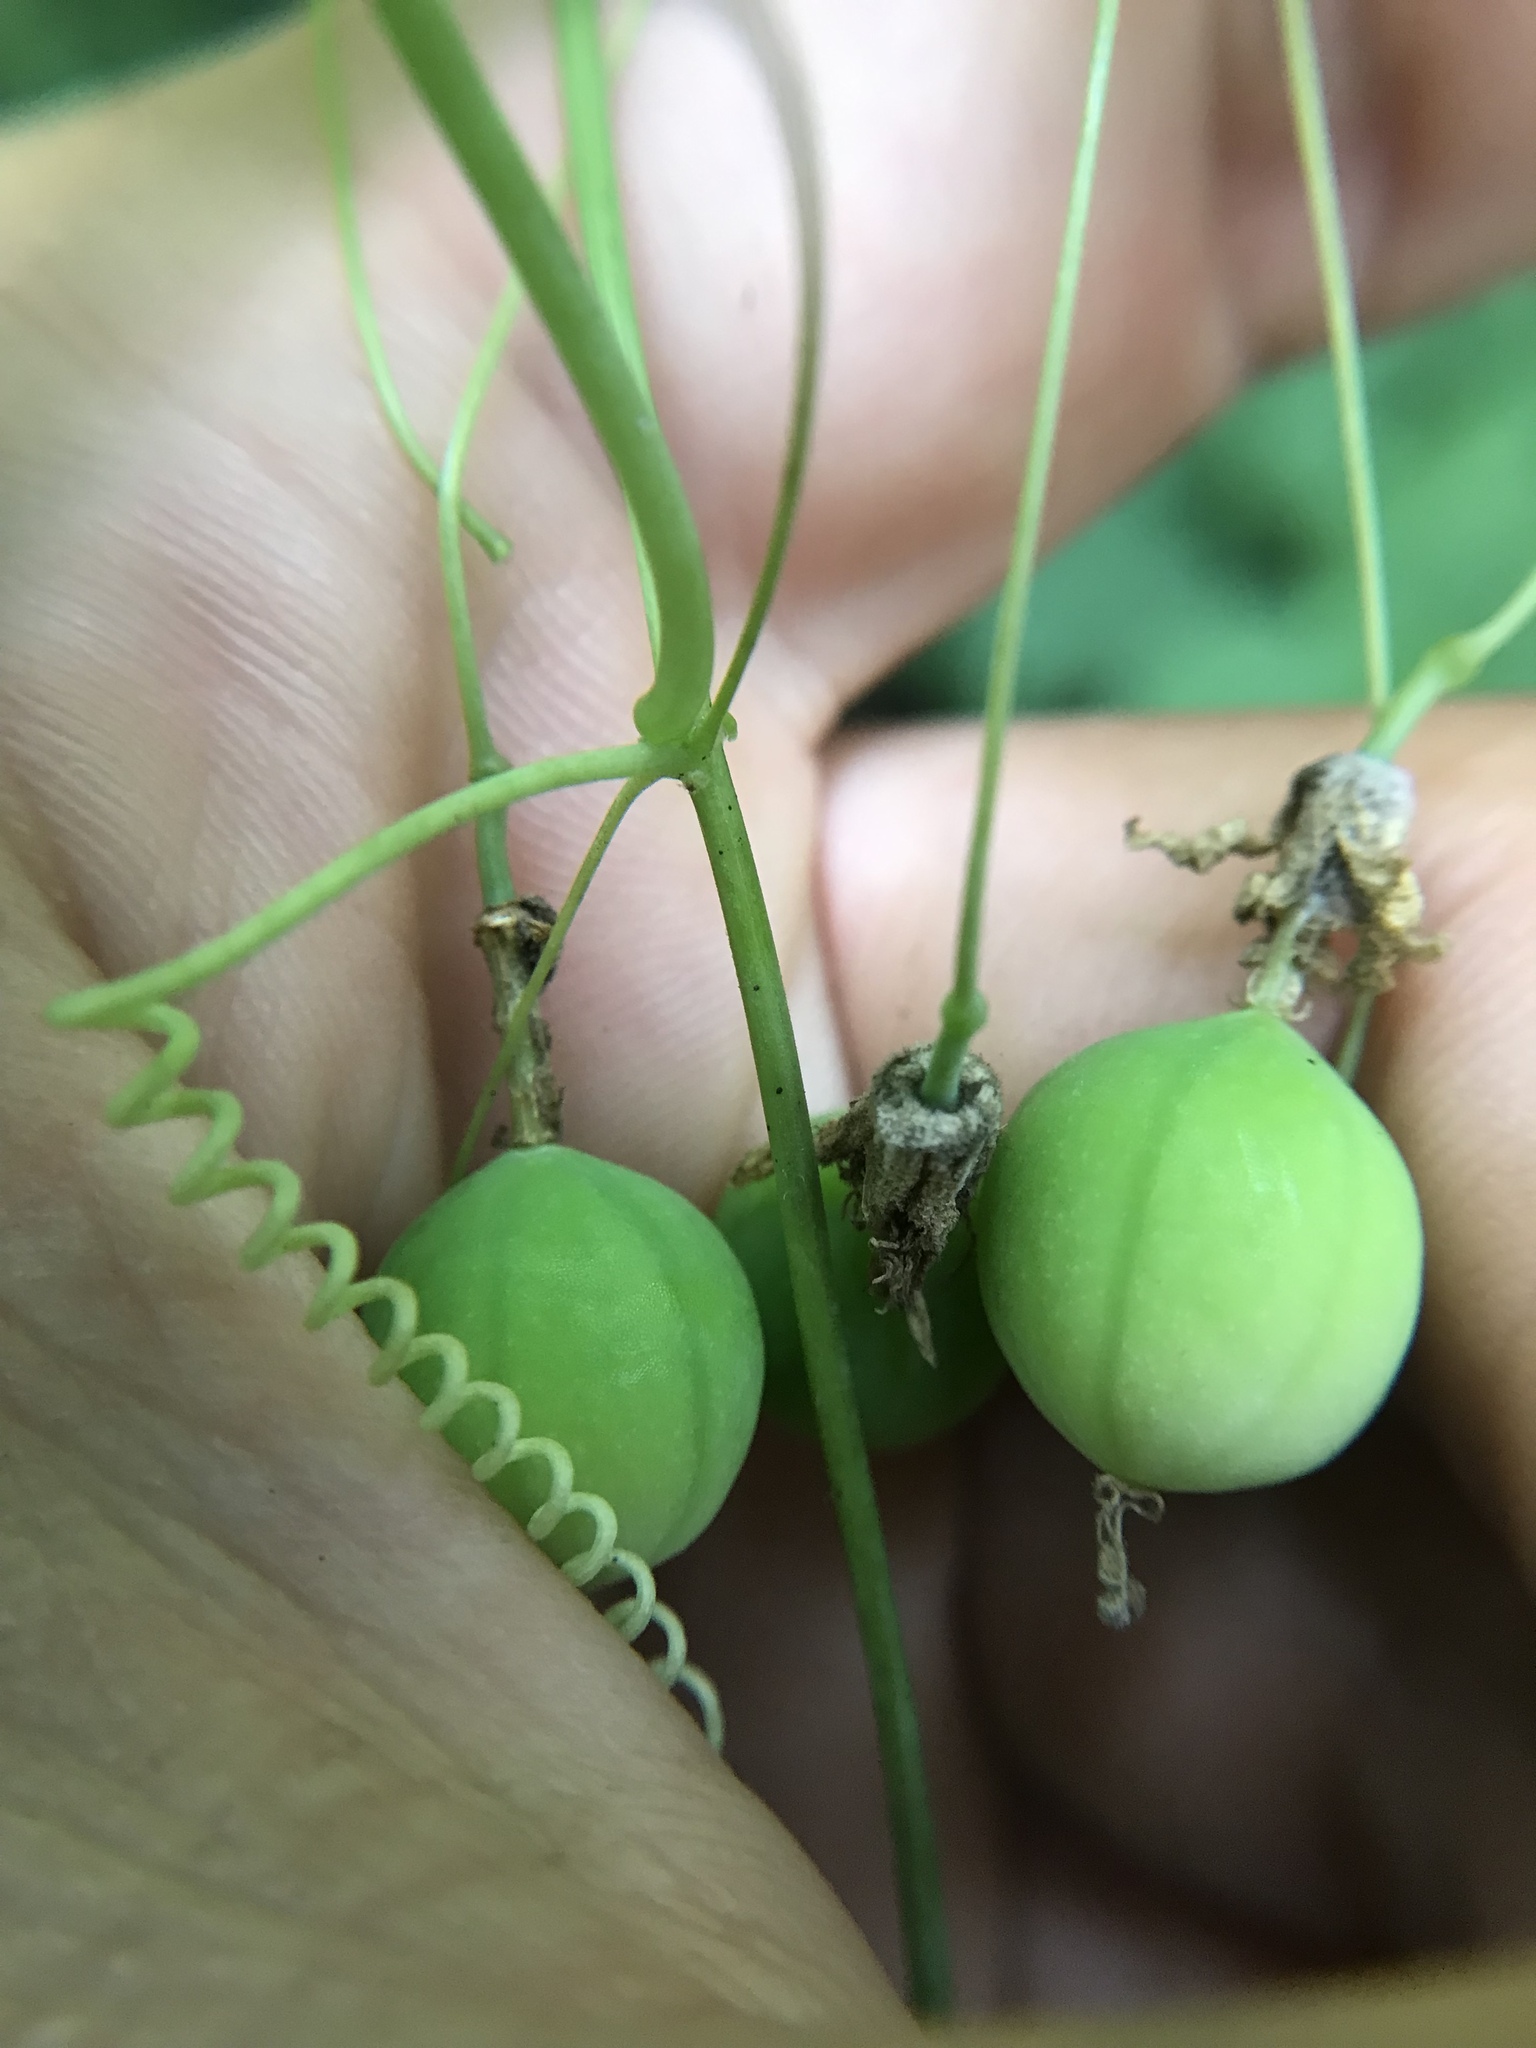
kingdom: Plantae
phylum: Tracheophyta
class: Magnoliopsida
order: Malpighiales
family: Passifloraceae
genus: Passiflora
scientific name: Passiflora lutea
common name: Yellow passionflower
